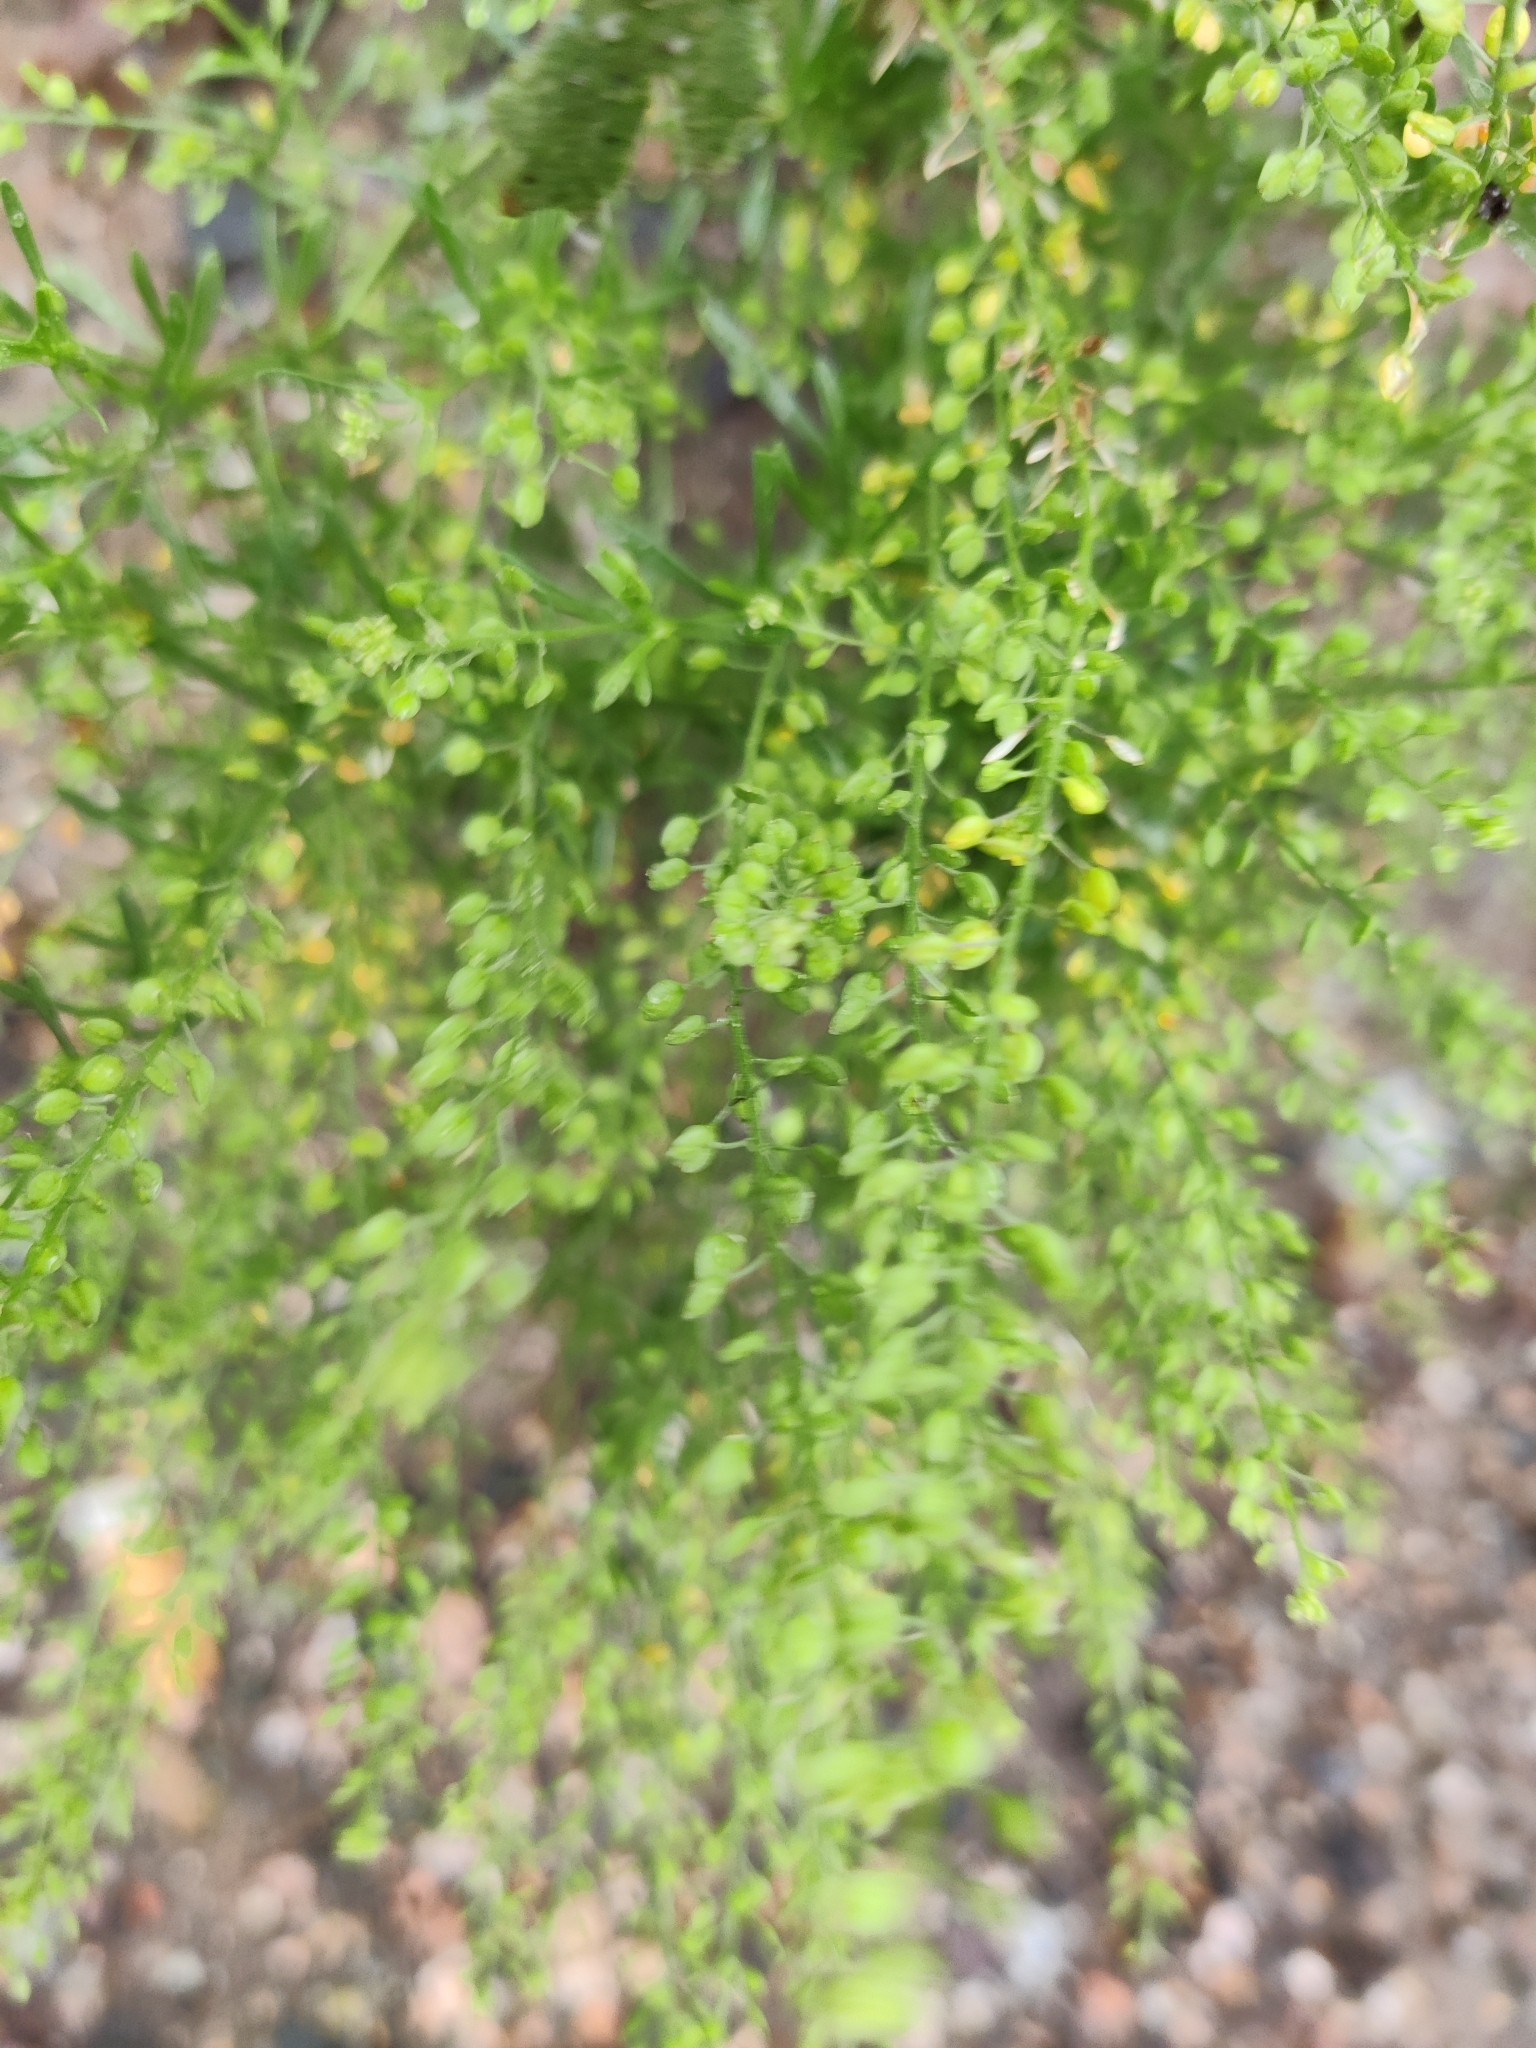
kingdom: Plantae
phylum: Tracheophyta
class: Magnoliopsida
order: Brassicales
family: Brassicaceae
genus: Lepidium
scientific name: Lepidium densiflorum
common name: Miner's pepperwort
